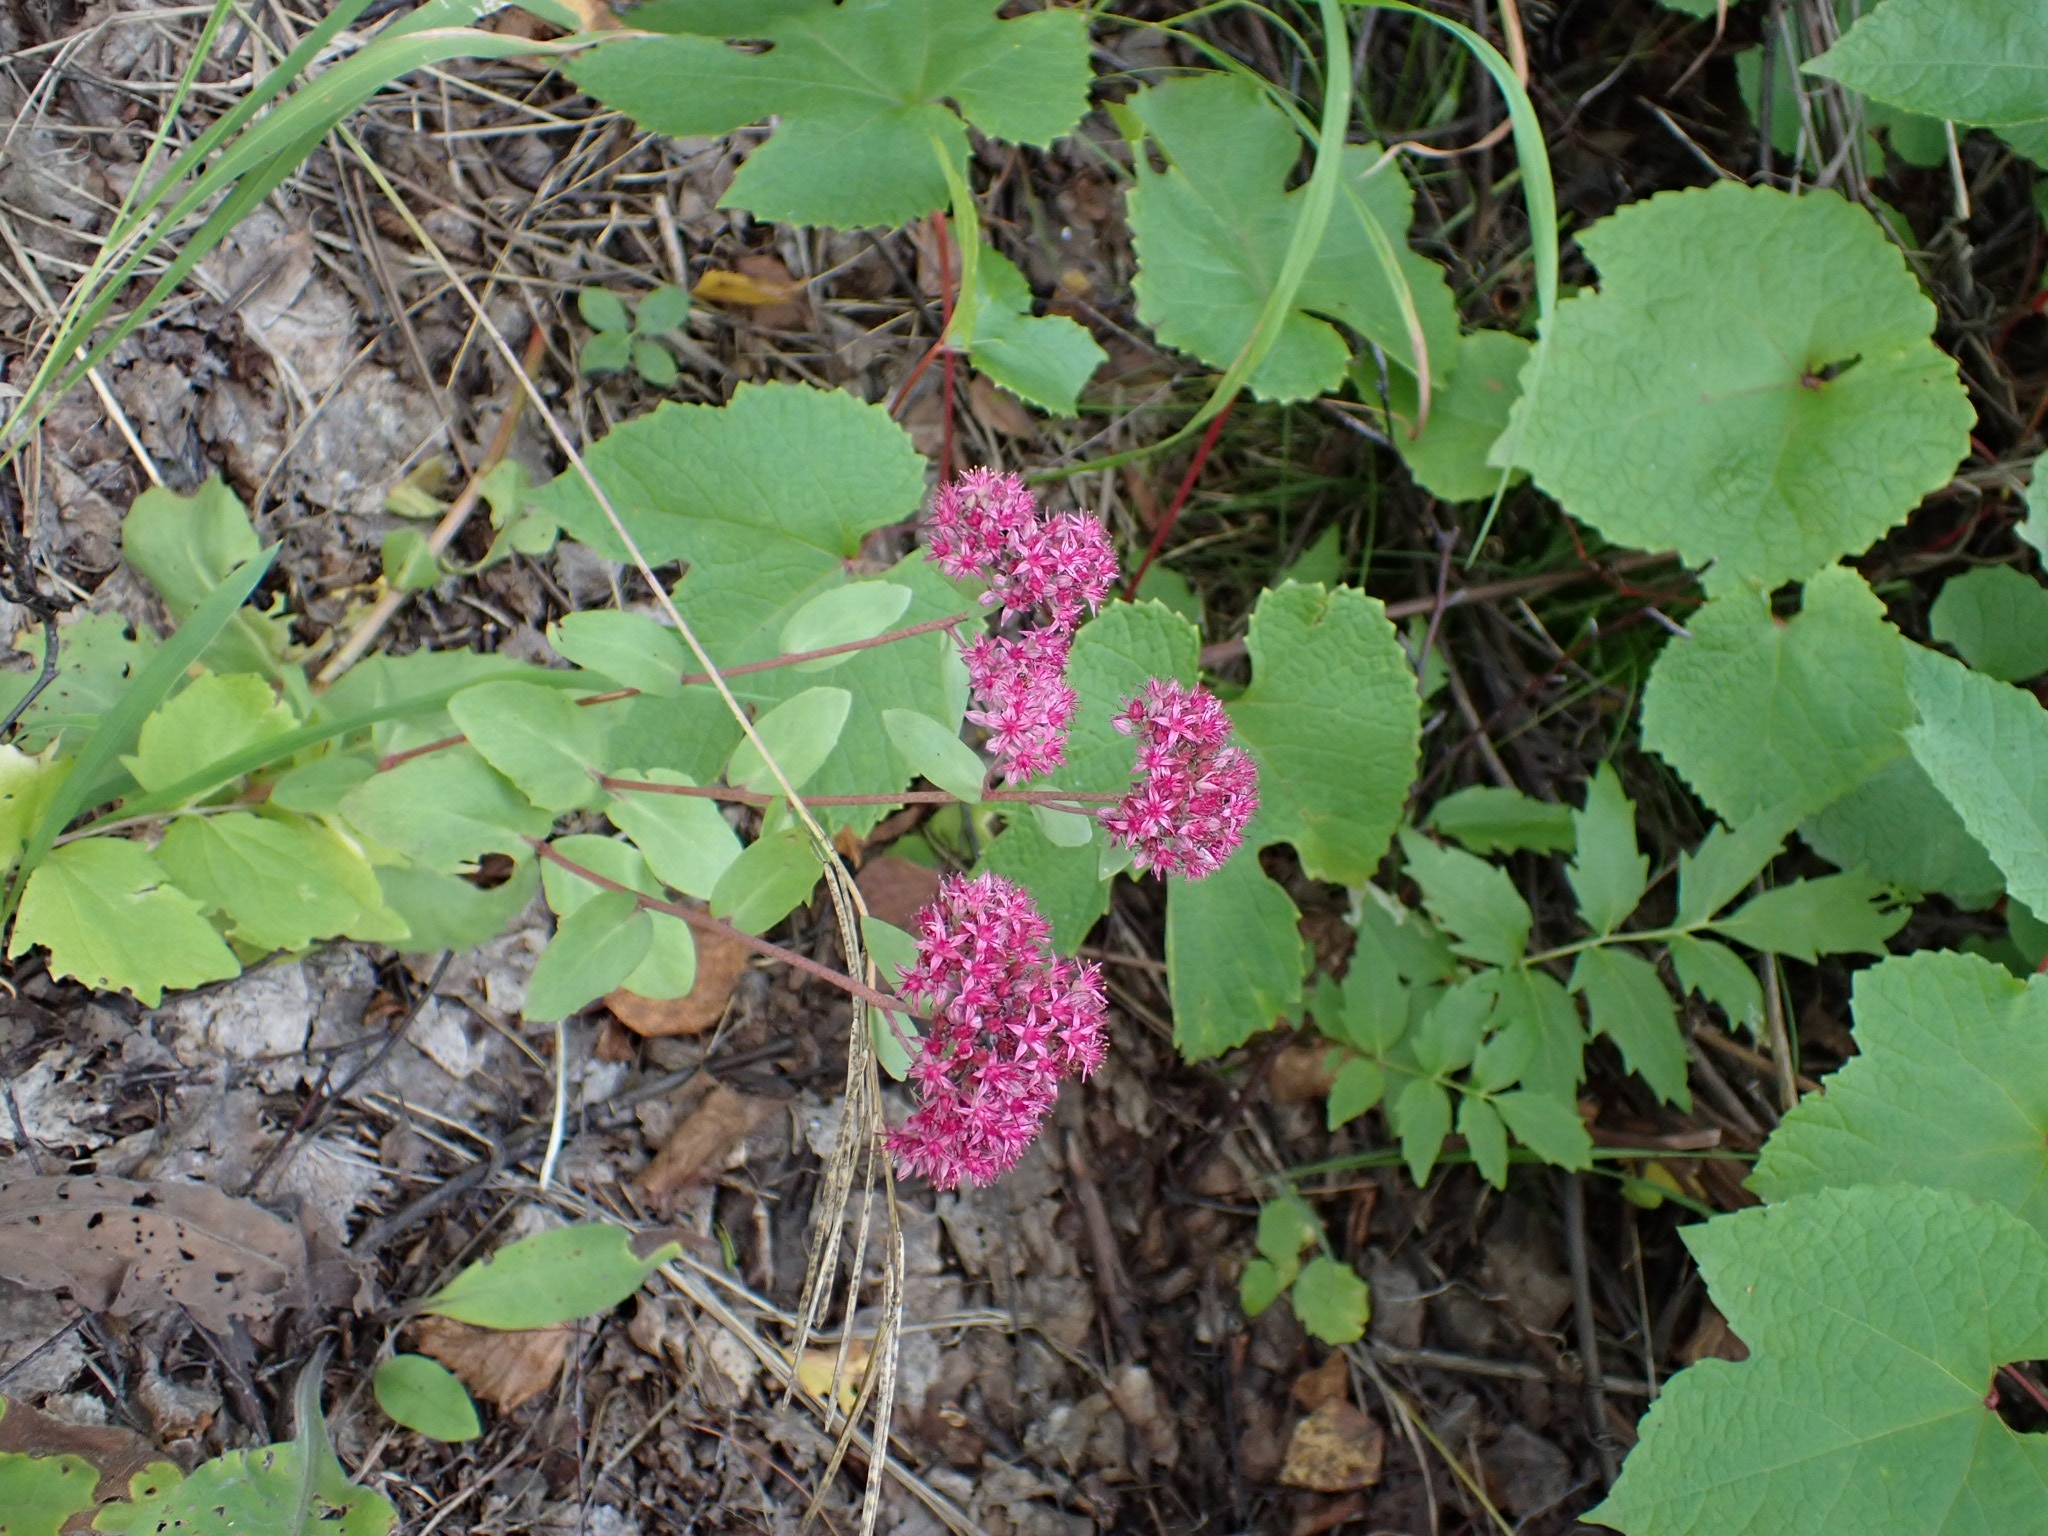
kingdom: Plantae
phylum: Tracheophyta
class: Magnoliopsida
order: Saxifragales
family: Crassulaceae
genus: Hylotelephium
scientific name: Hylotelephium telephium
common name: Live-forever
